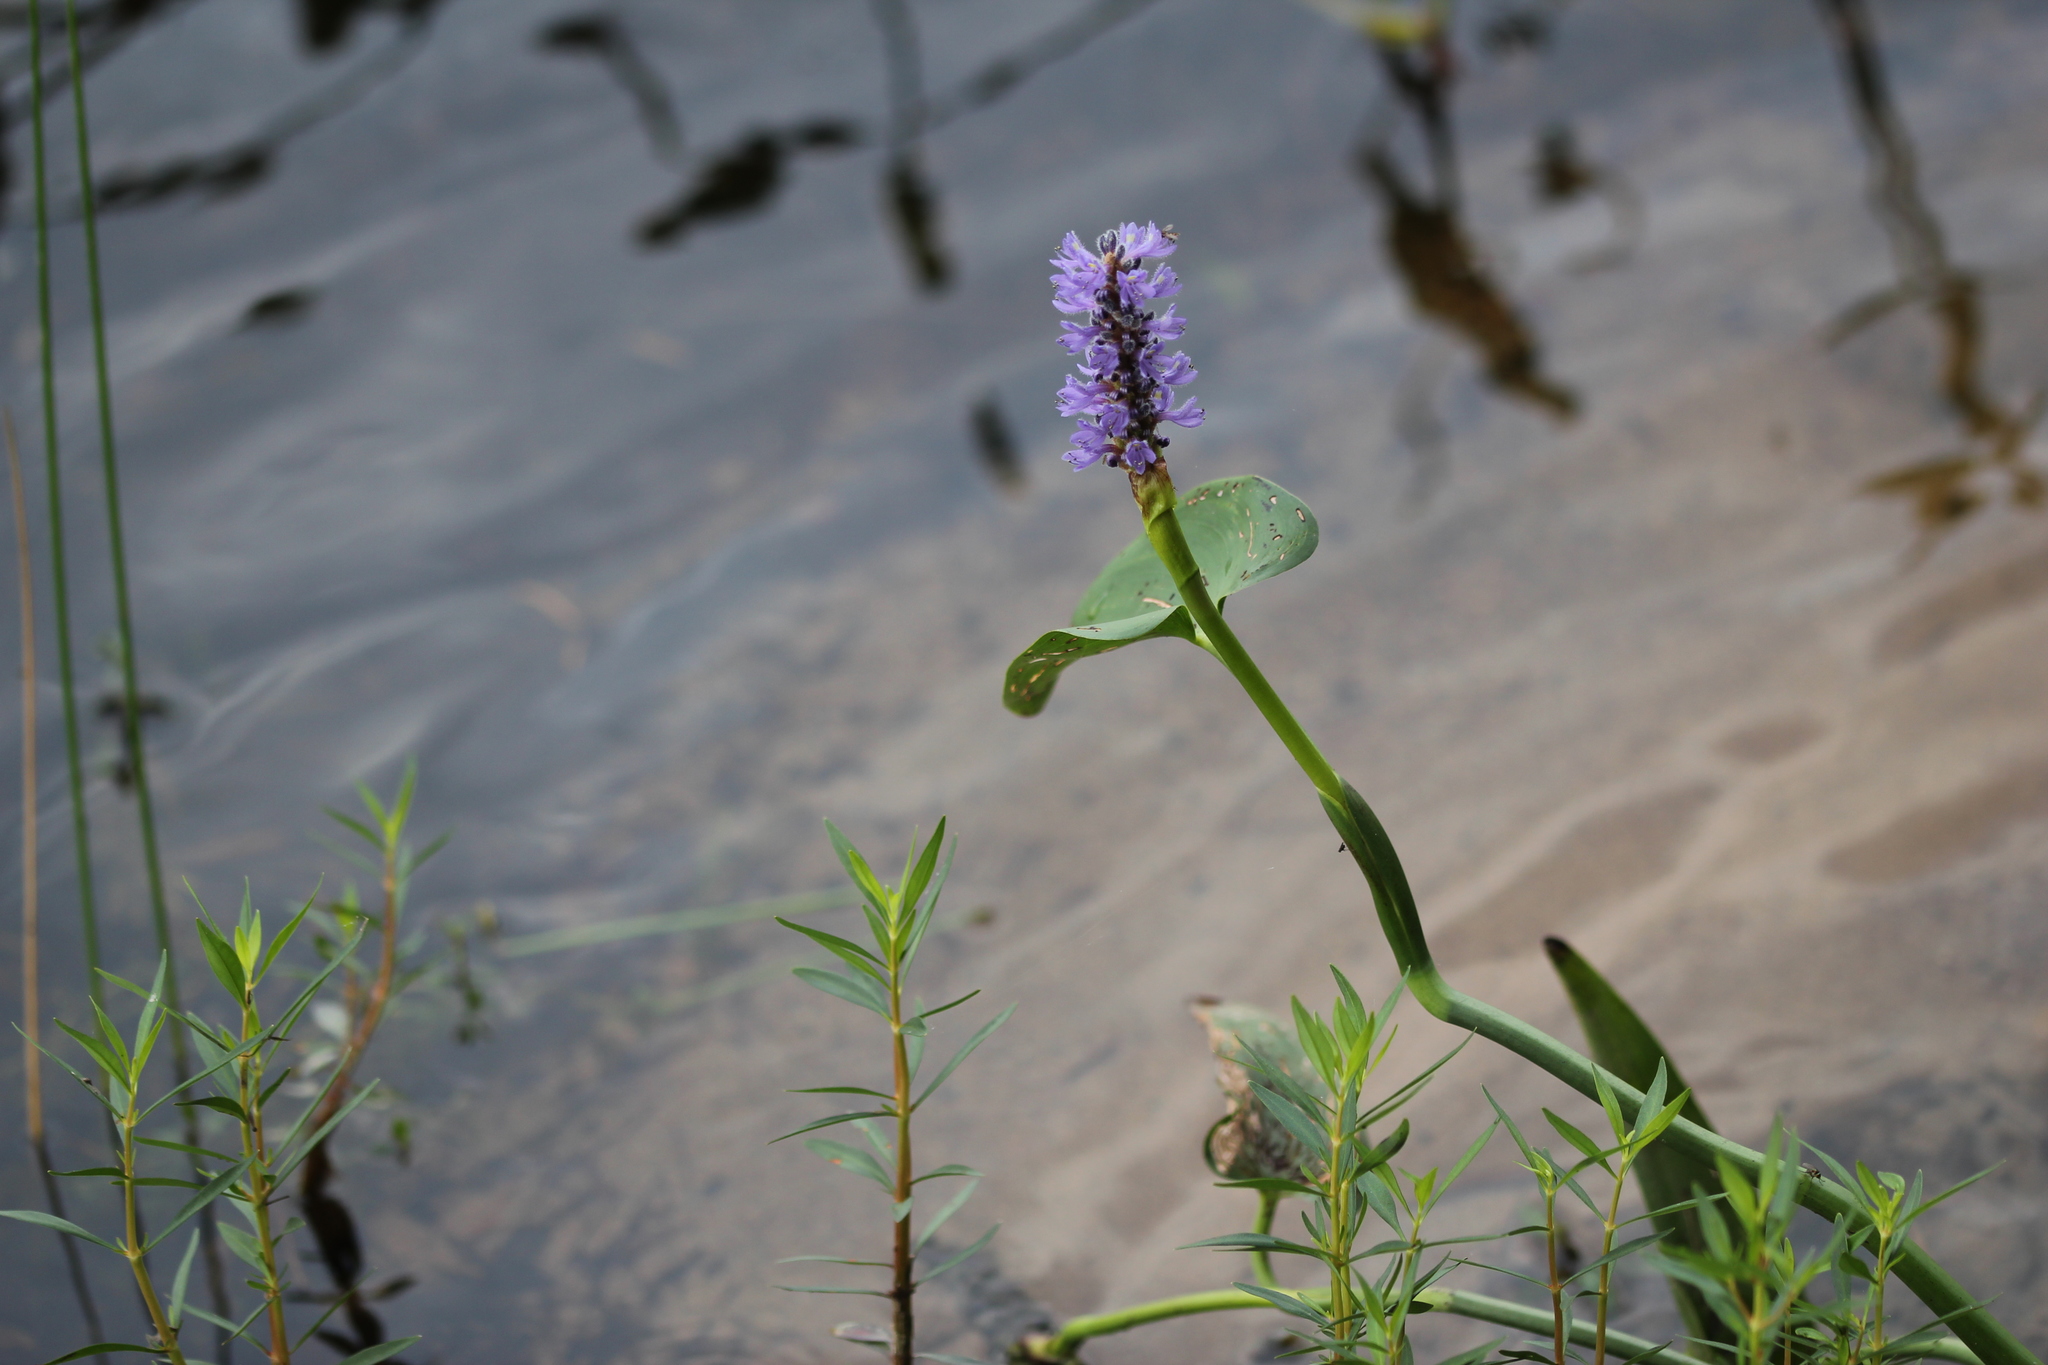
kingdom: Plantae
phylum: Tracheophyta
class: Liliopsida
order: Commelinales
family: Pontederiaceae
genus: Pontederia
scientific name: Pontederia cordata
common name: Pickerelweed
